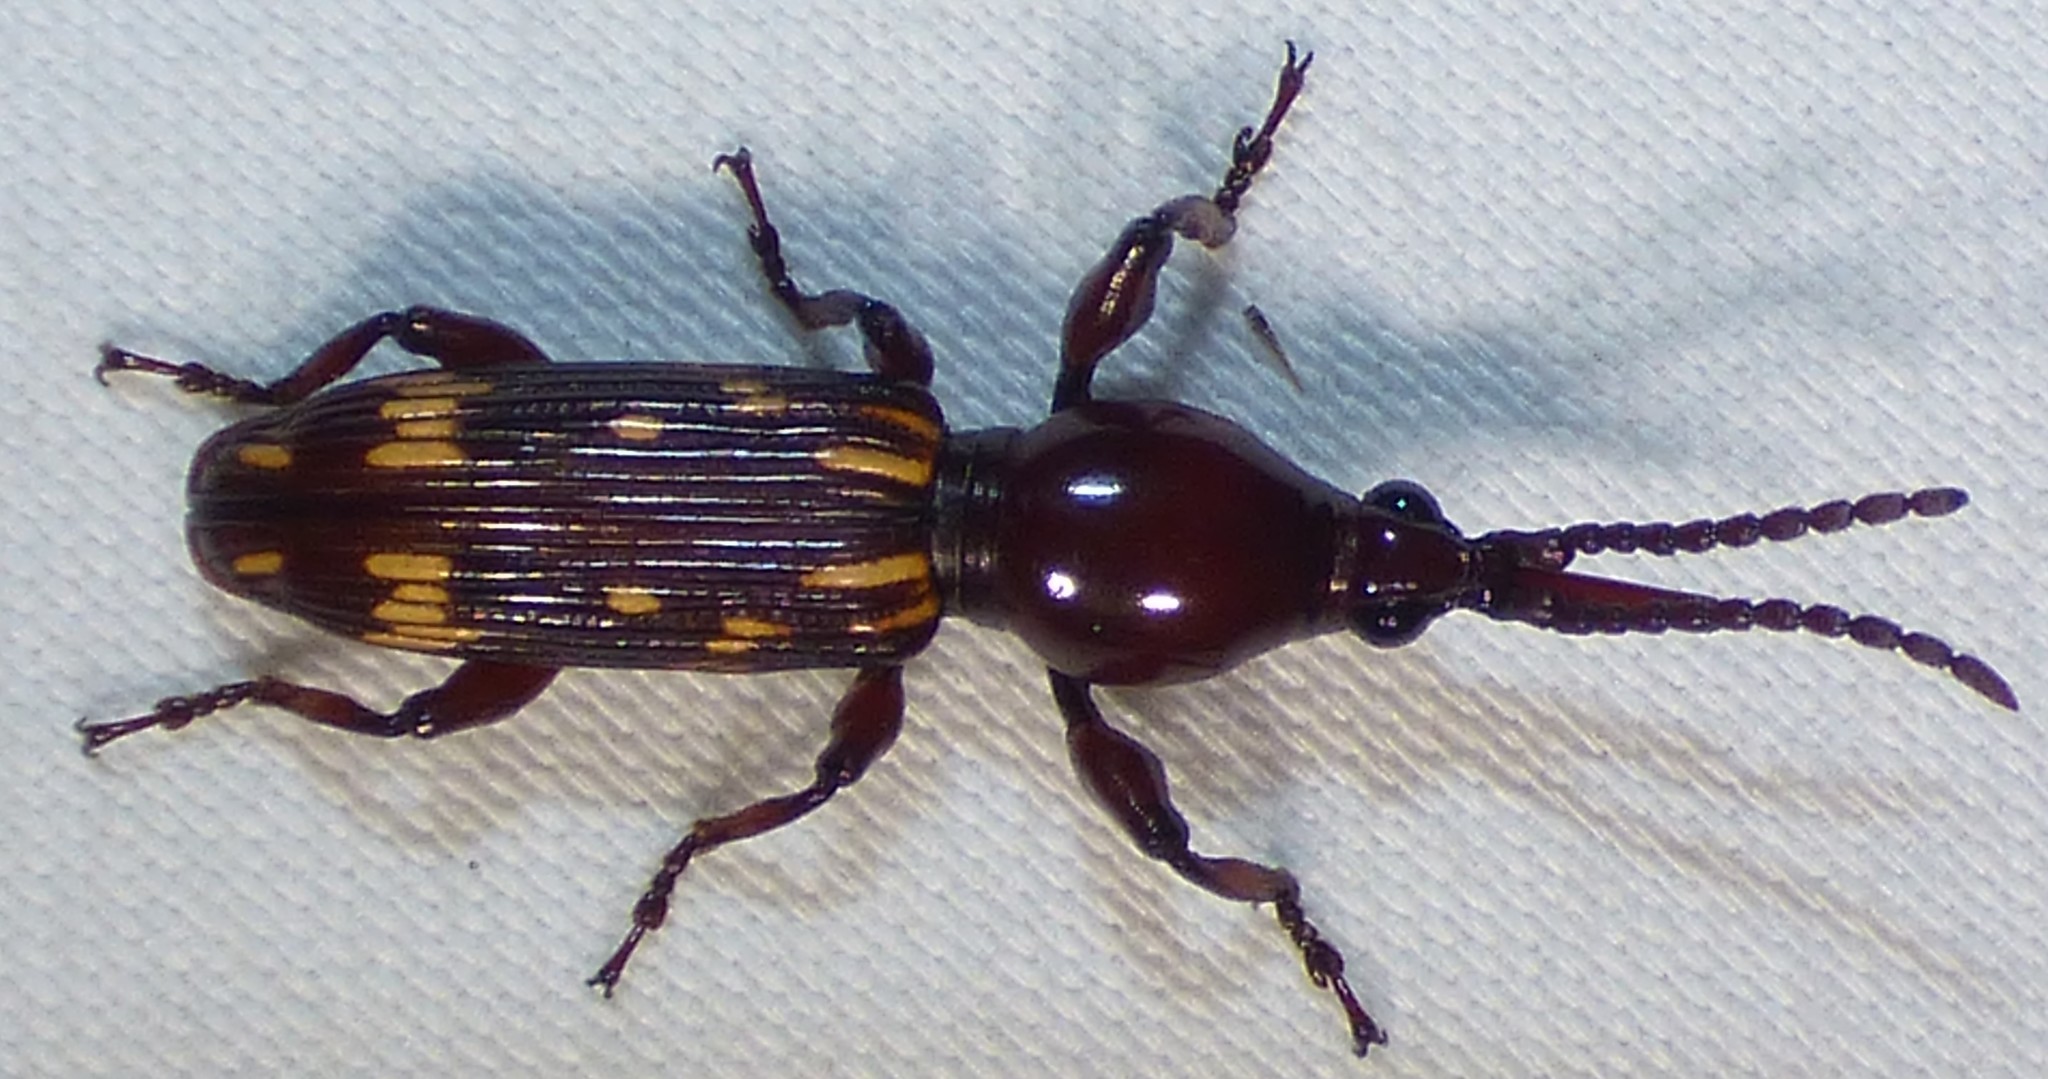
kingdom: Animalia
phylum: Arthropoda
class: Insecta
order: Coleoptera
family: Brentidae
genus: Arrenodes
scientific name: Arrenodes minutus
